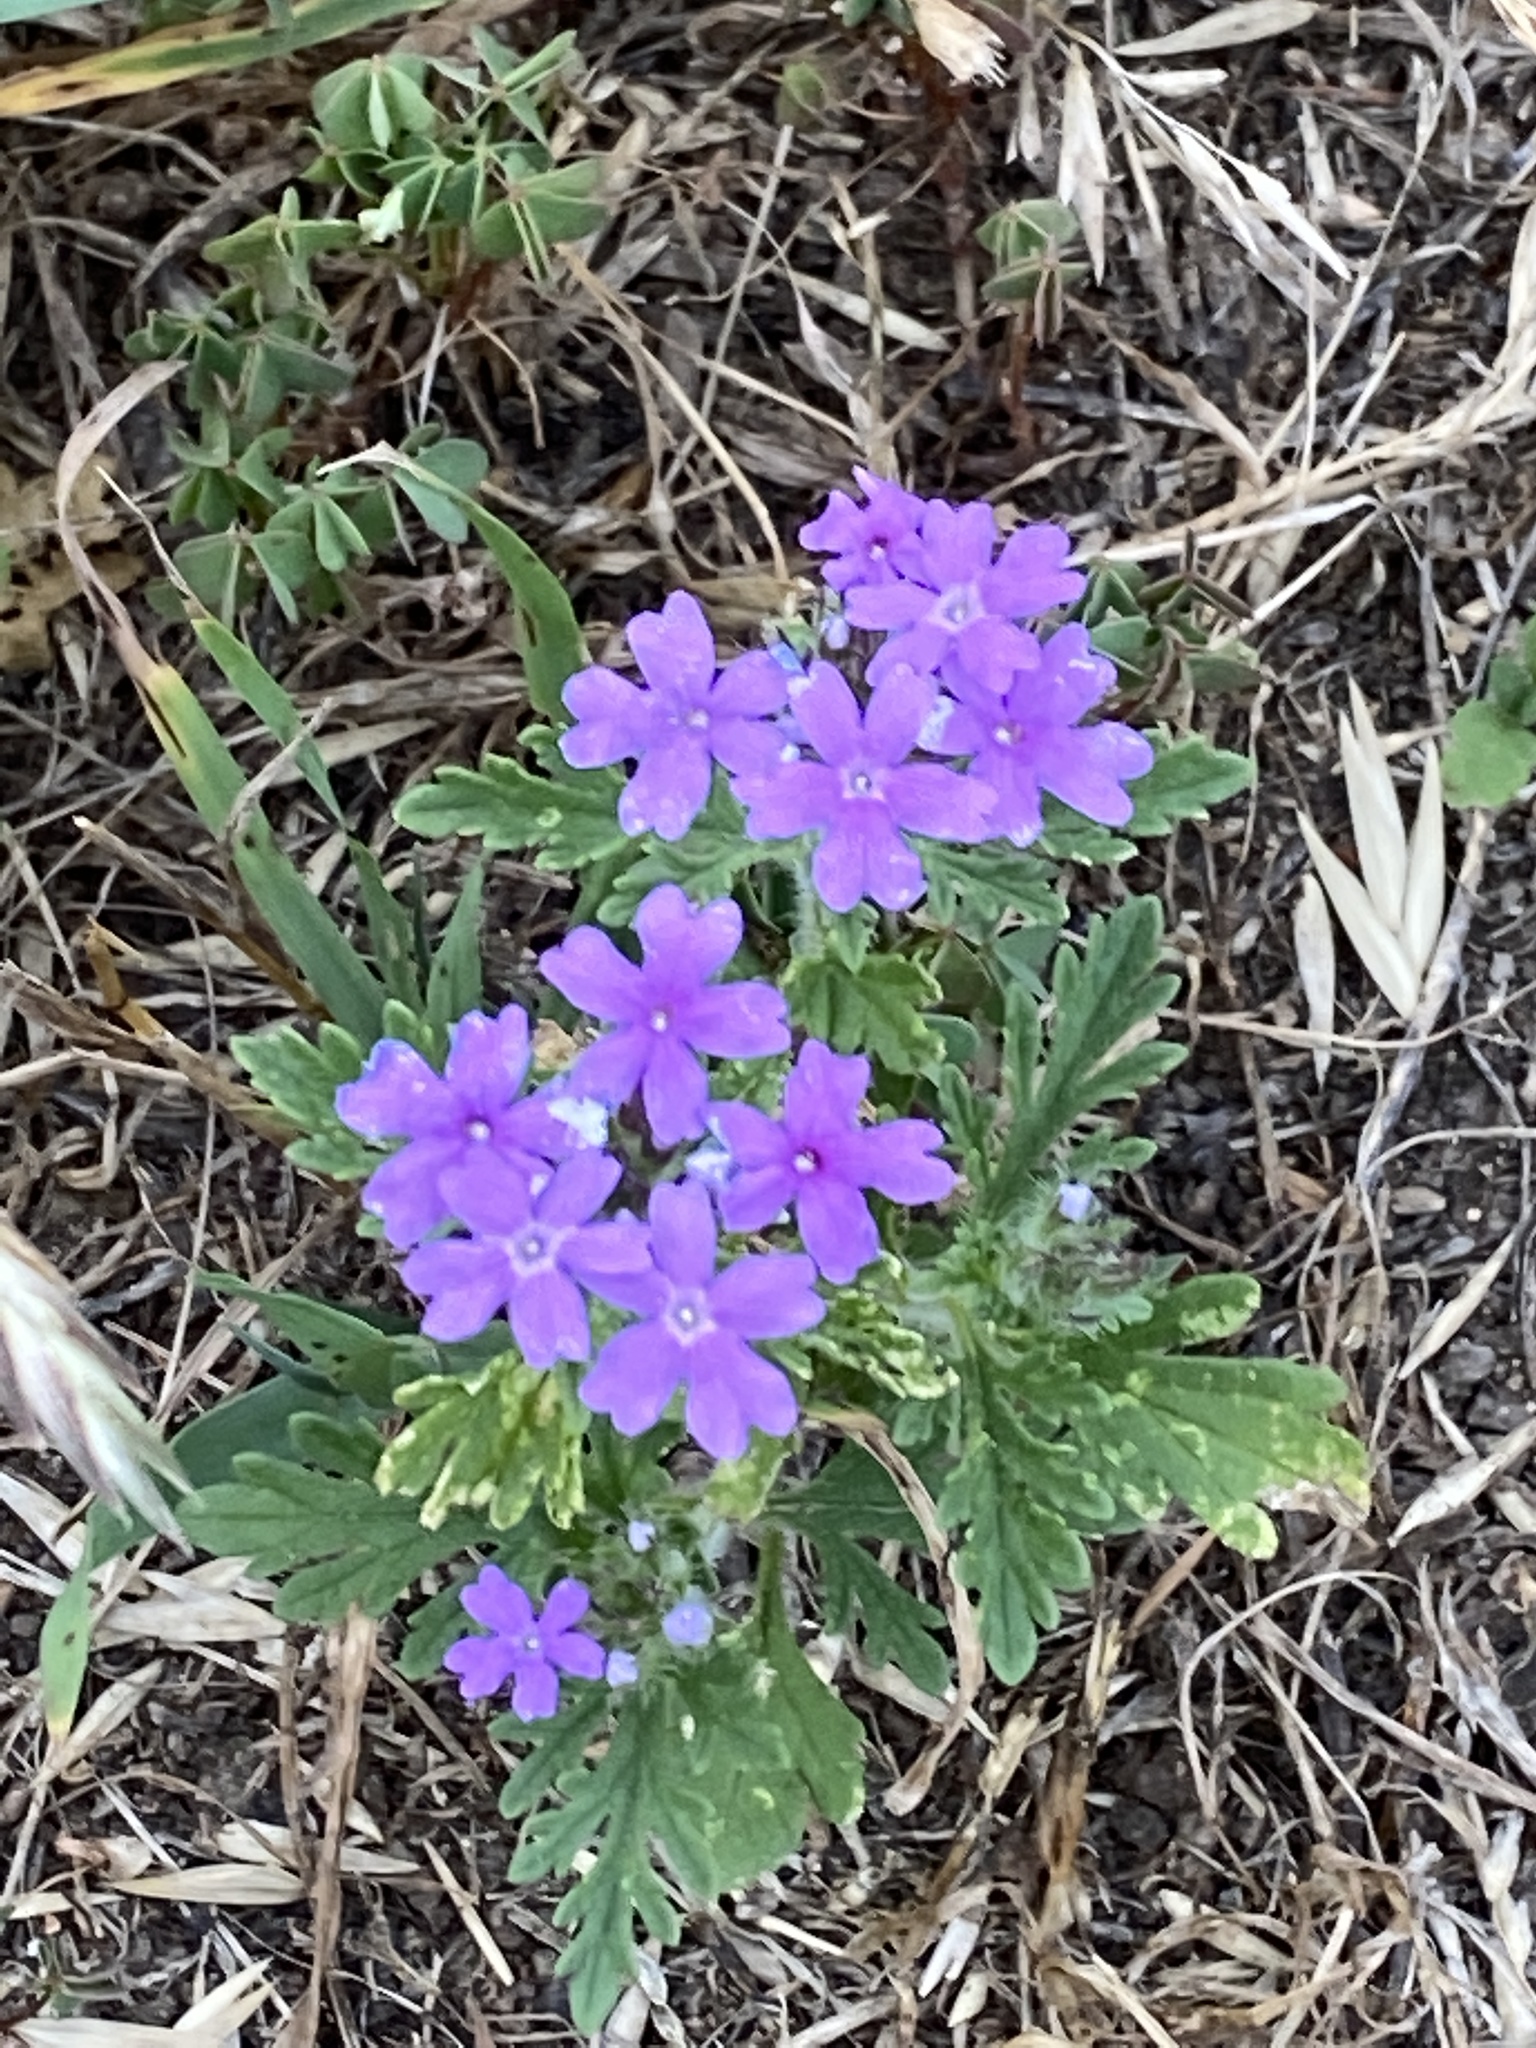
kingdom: Plantae
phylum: Tracheophyta
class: Magnoliopsida
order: Lamiales
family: Verbenaceae
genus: Verbena
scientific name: Verbena bipinnatifida
